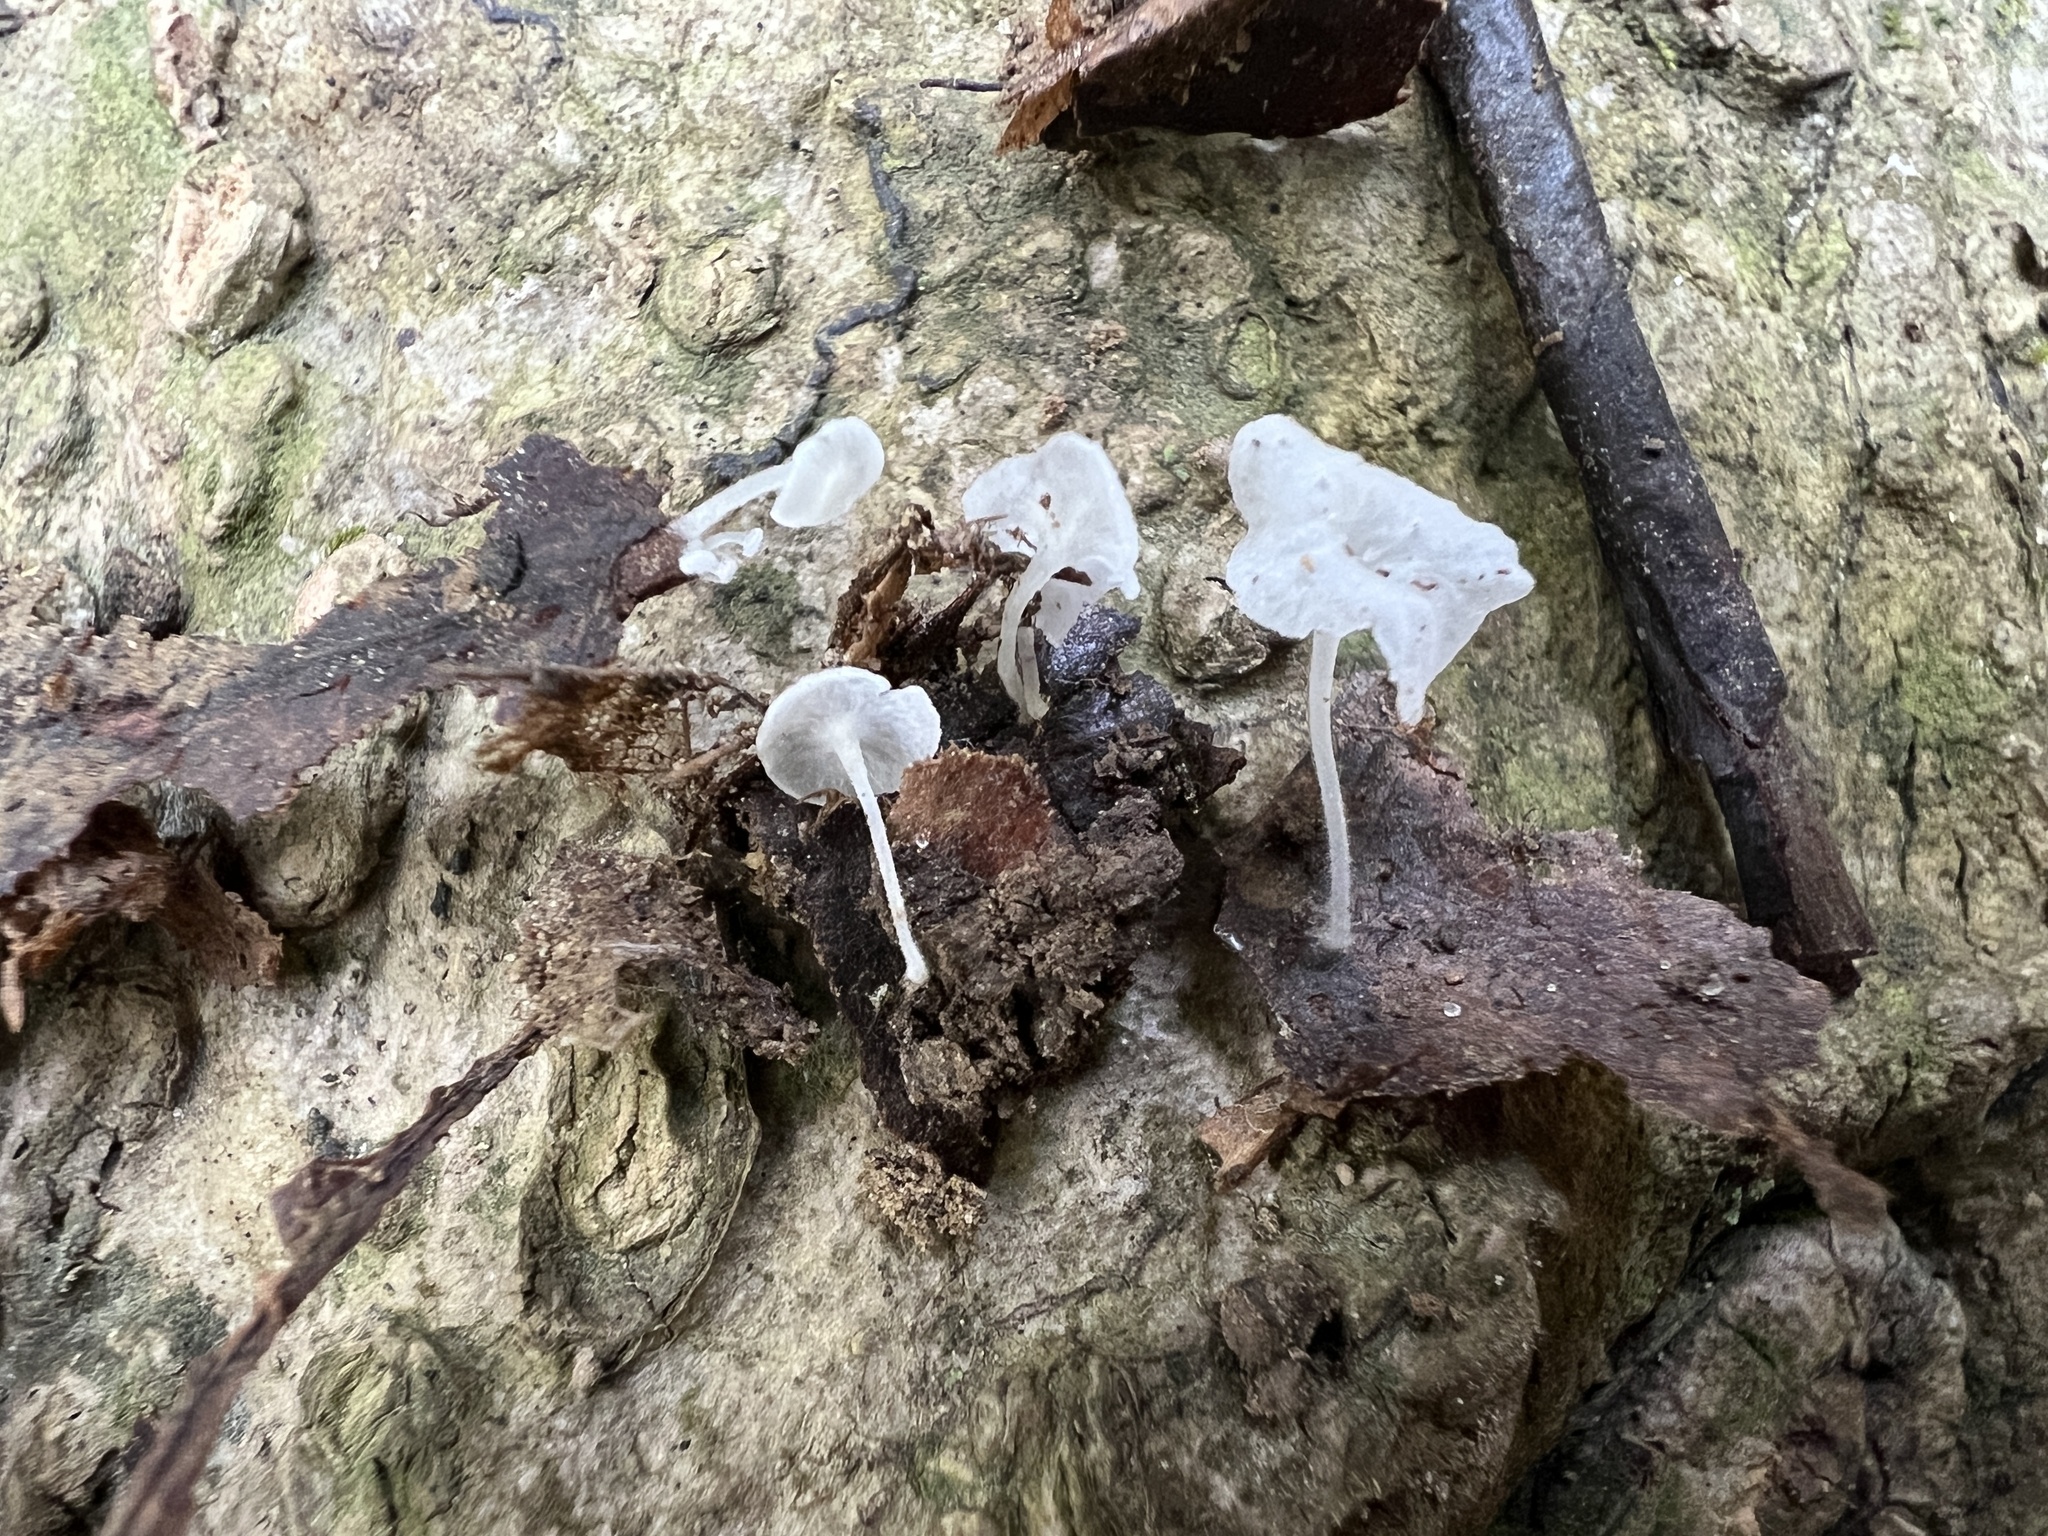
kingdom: Fungi
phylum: Basidiomycota
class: Agaricomycetes
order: Agaricales
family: Mycenaceae
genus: Hemimycena
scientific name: Hemimycena hirsuta
